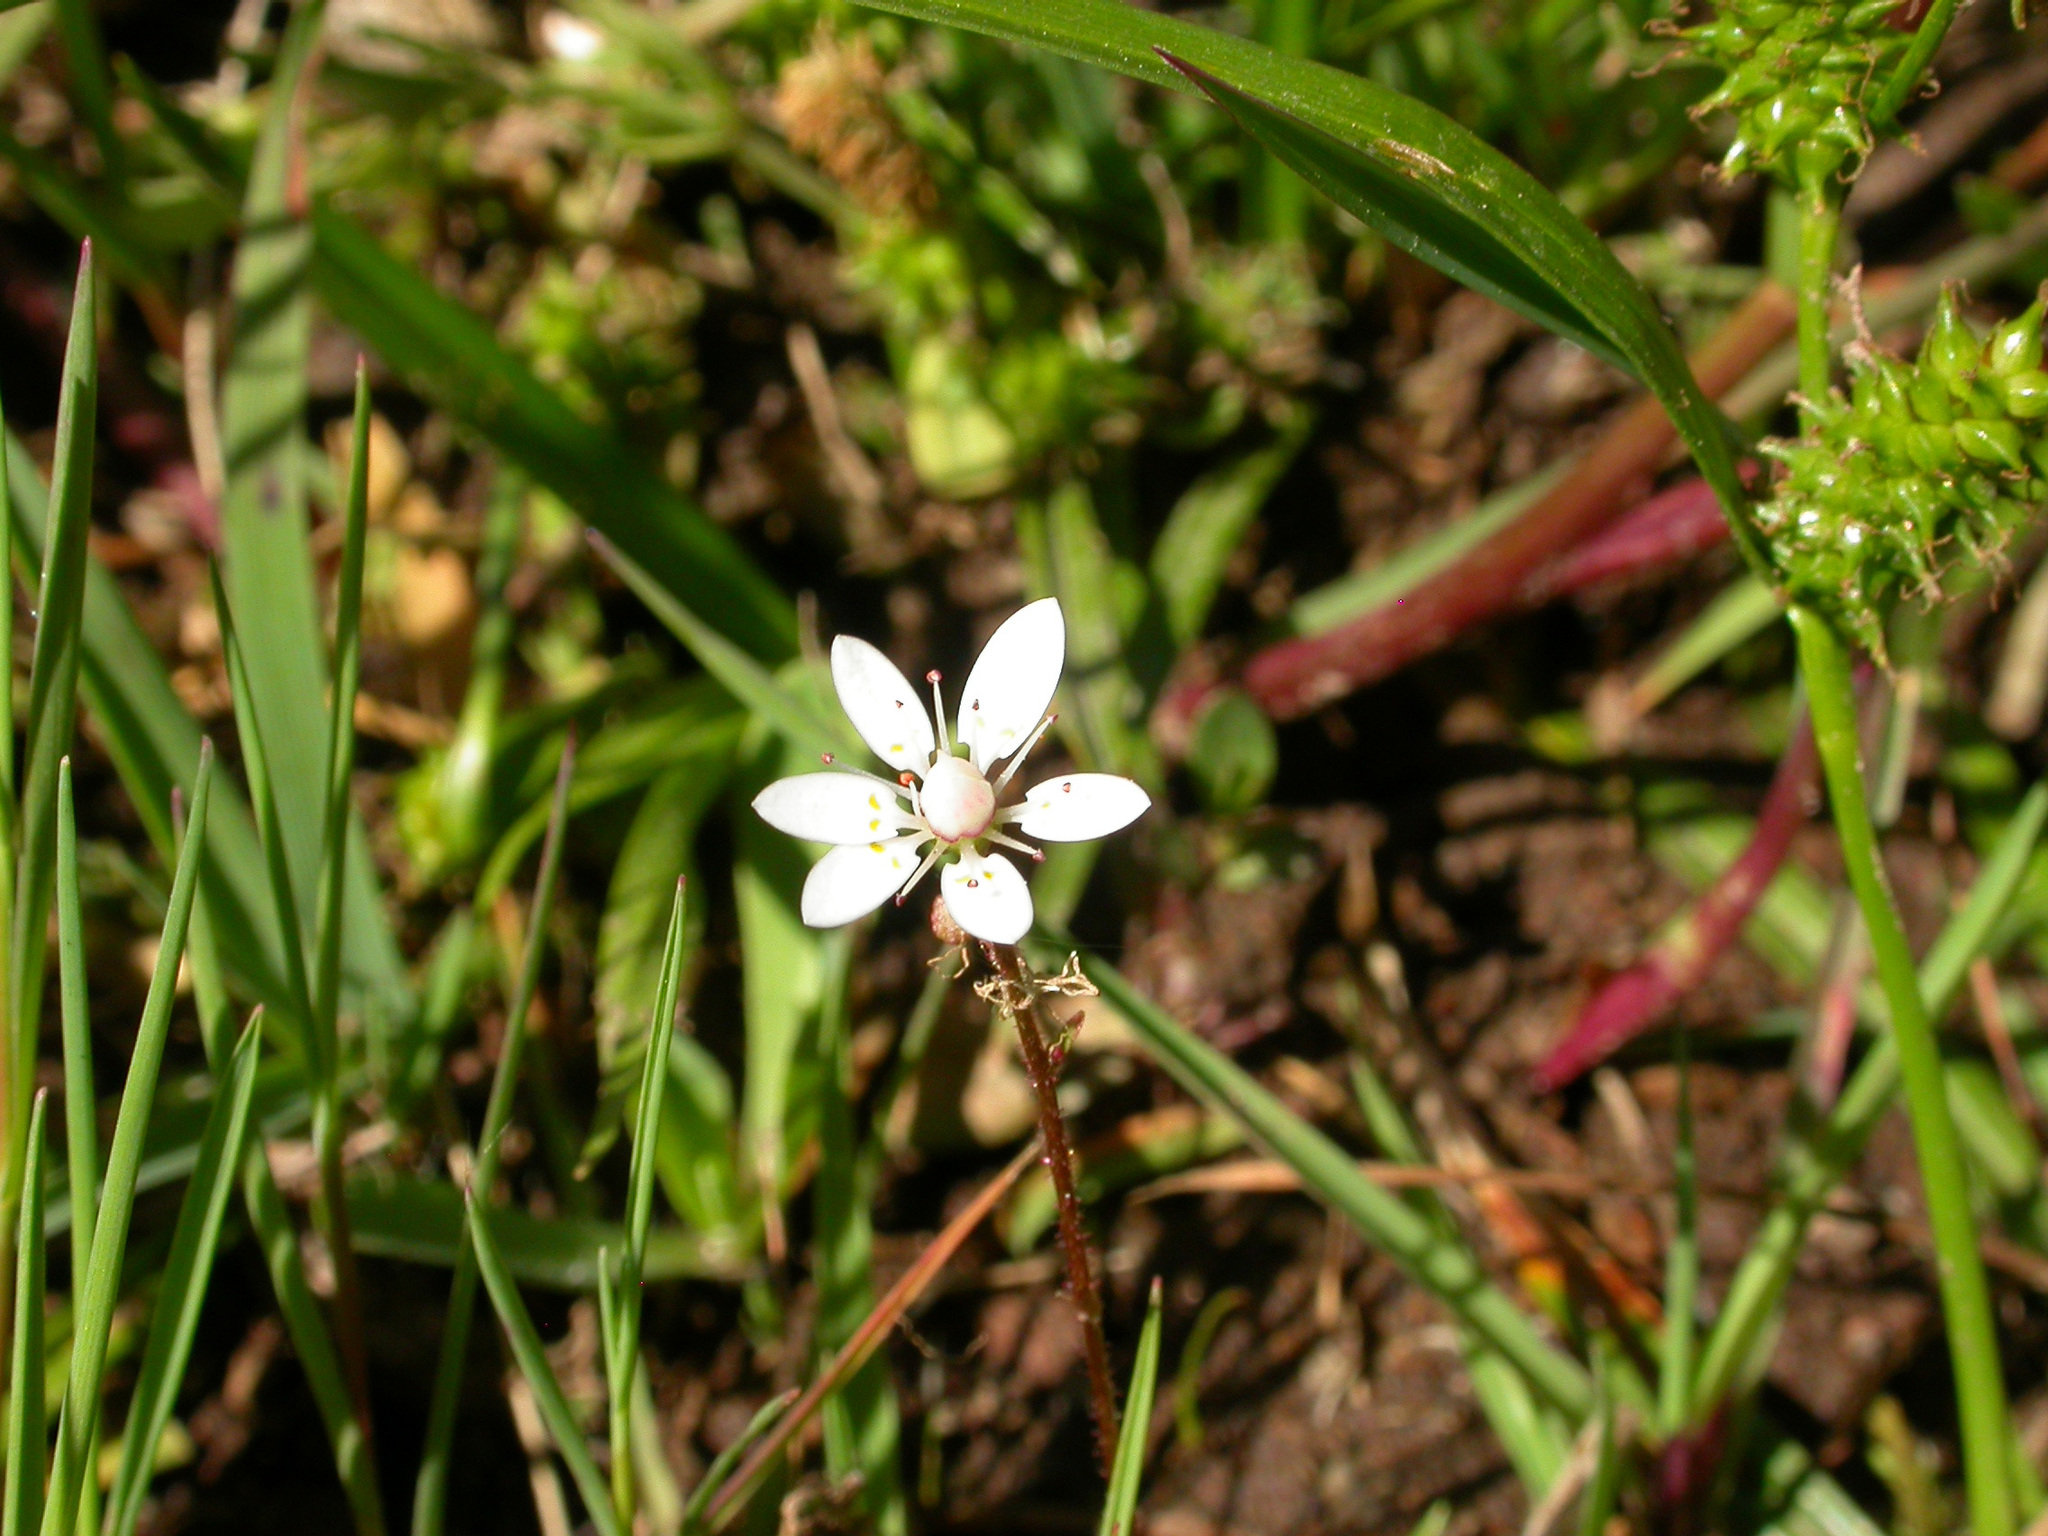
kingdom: Plantae
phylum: Tracheophyta
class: Magnoliopsida
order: Saxifragales
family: Saxifragaceae
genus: Micranthes
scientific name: Micranthes stellaris
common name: Starry saxifrage
